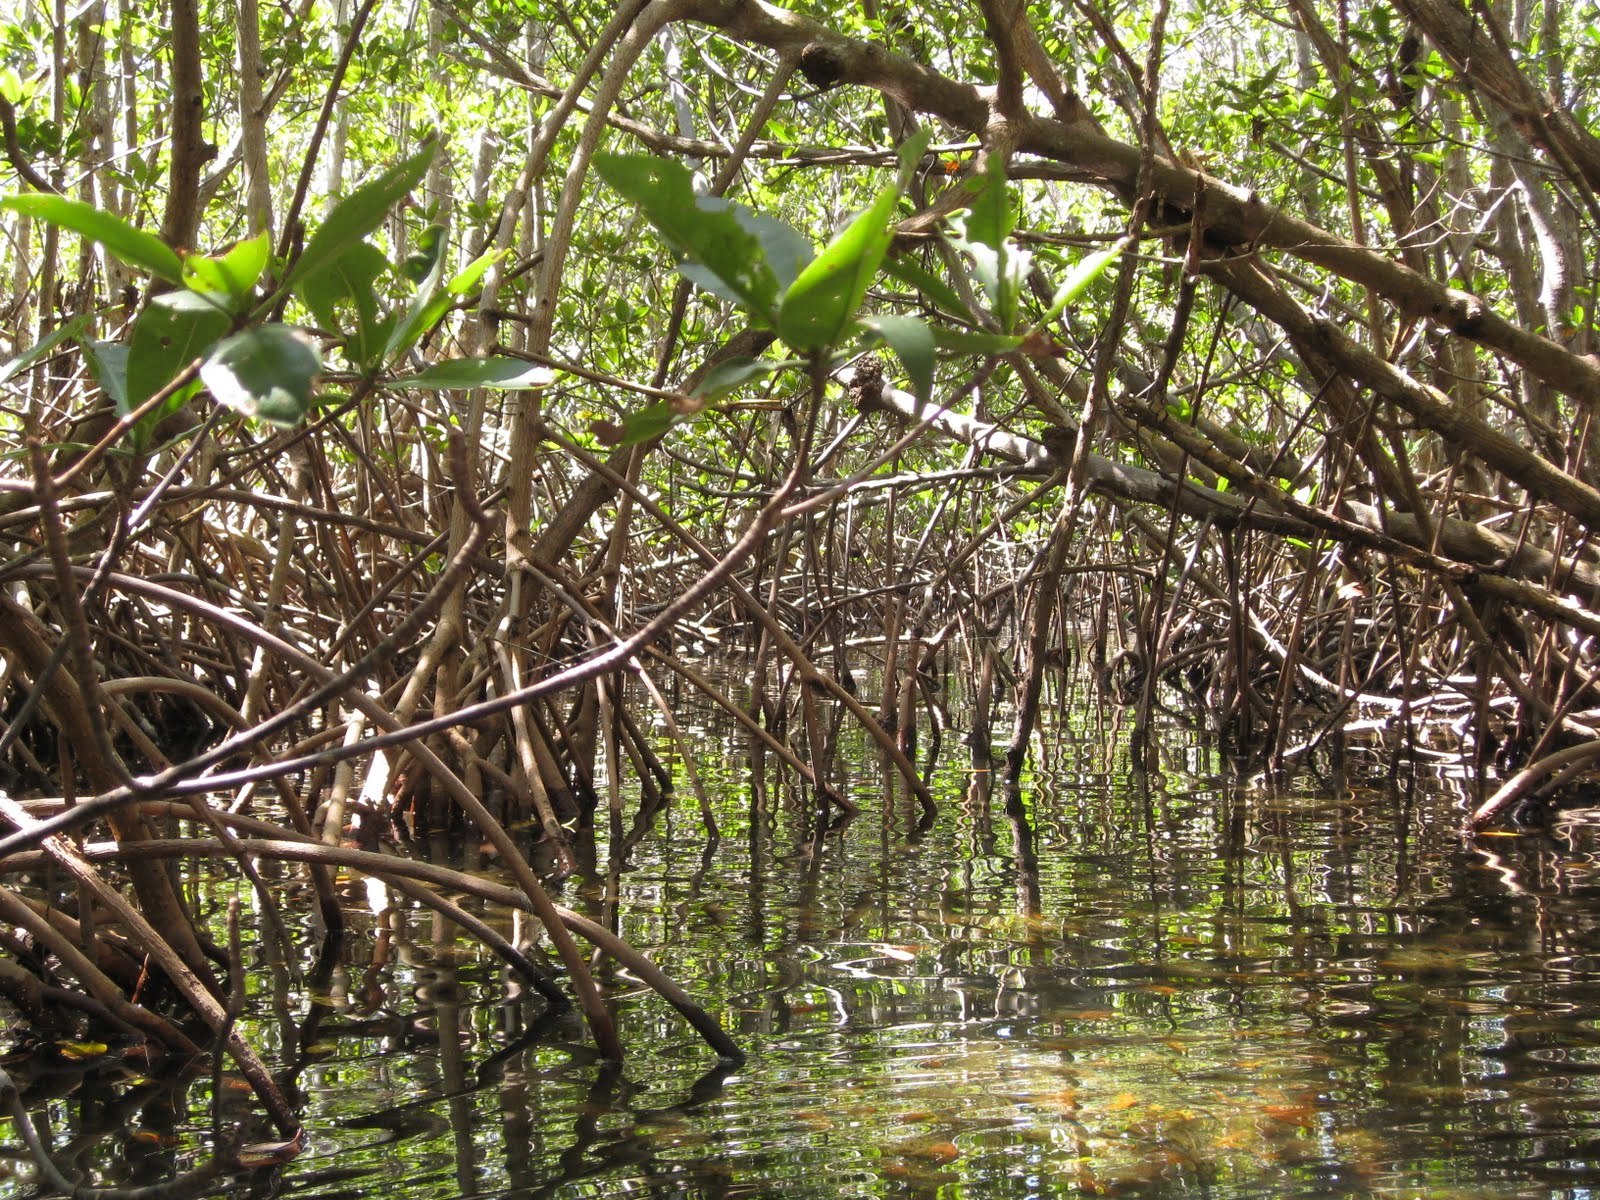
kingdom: Plantae
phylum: Tracheophyta
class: Magnoliopsida
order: Malpighiales
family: Rhizophoraceae
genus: Rhizophora
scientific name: Rhizophora mangle
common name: Red mangrove
